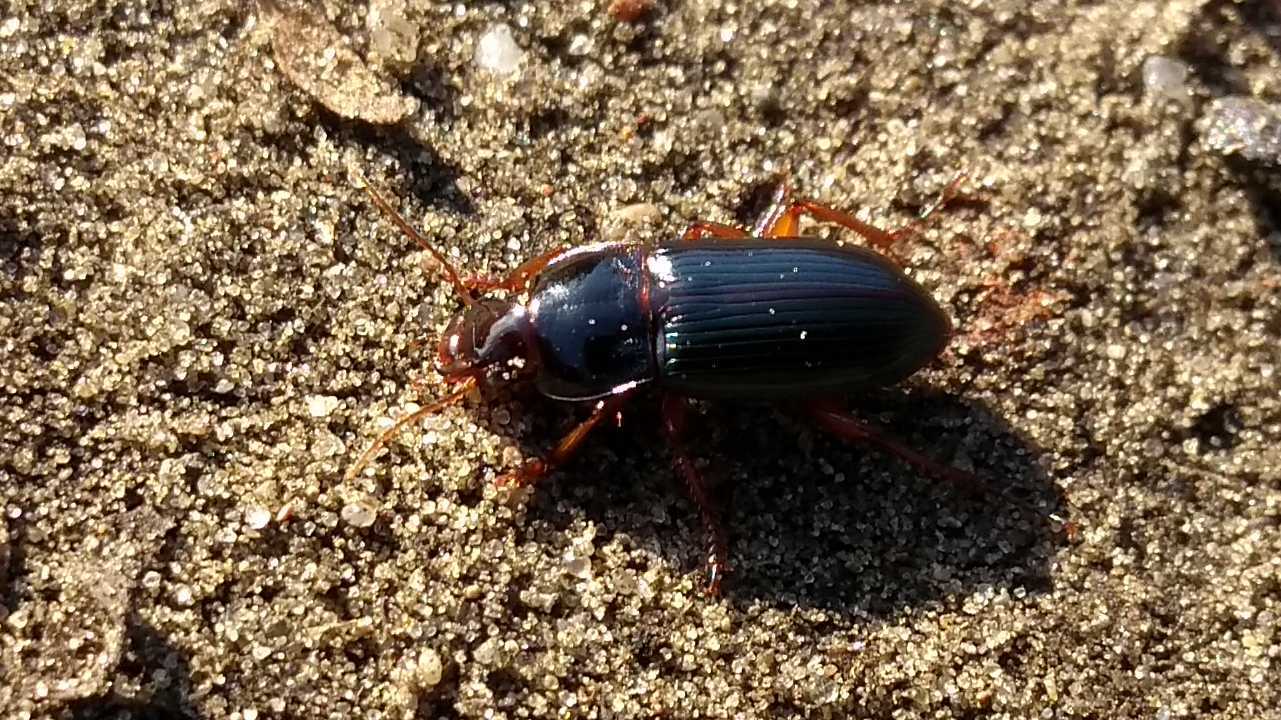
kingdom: Animalia
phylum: Arthropoda
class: Insecta
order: Coleoptera
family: Carabidae
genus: Harpalus
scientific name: Harpalus smaragdinus
